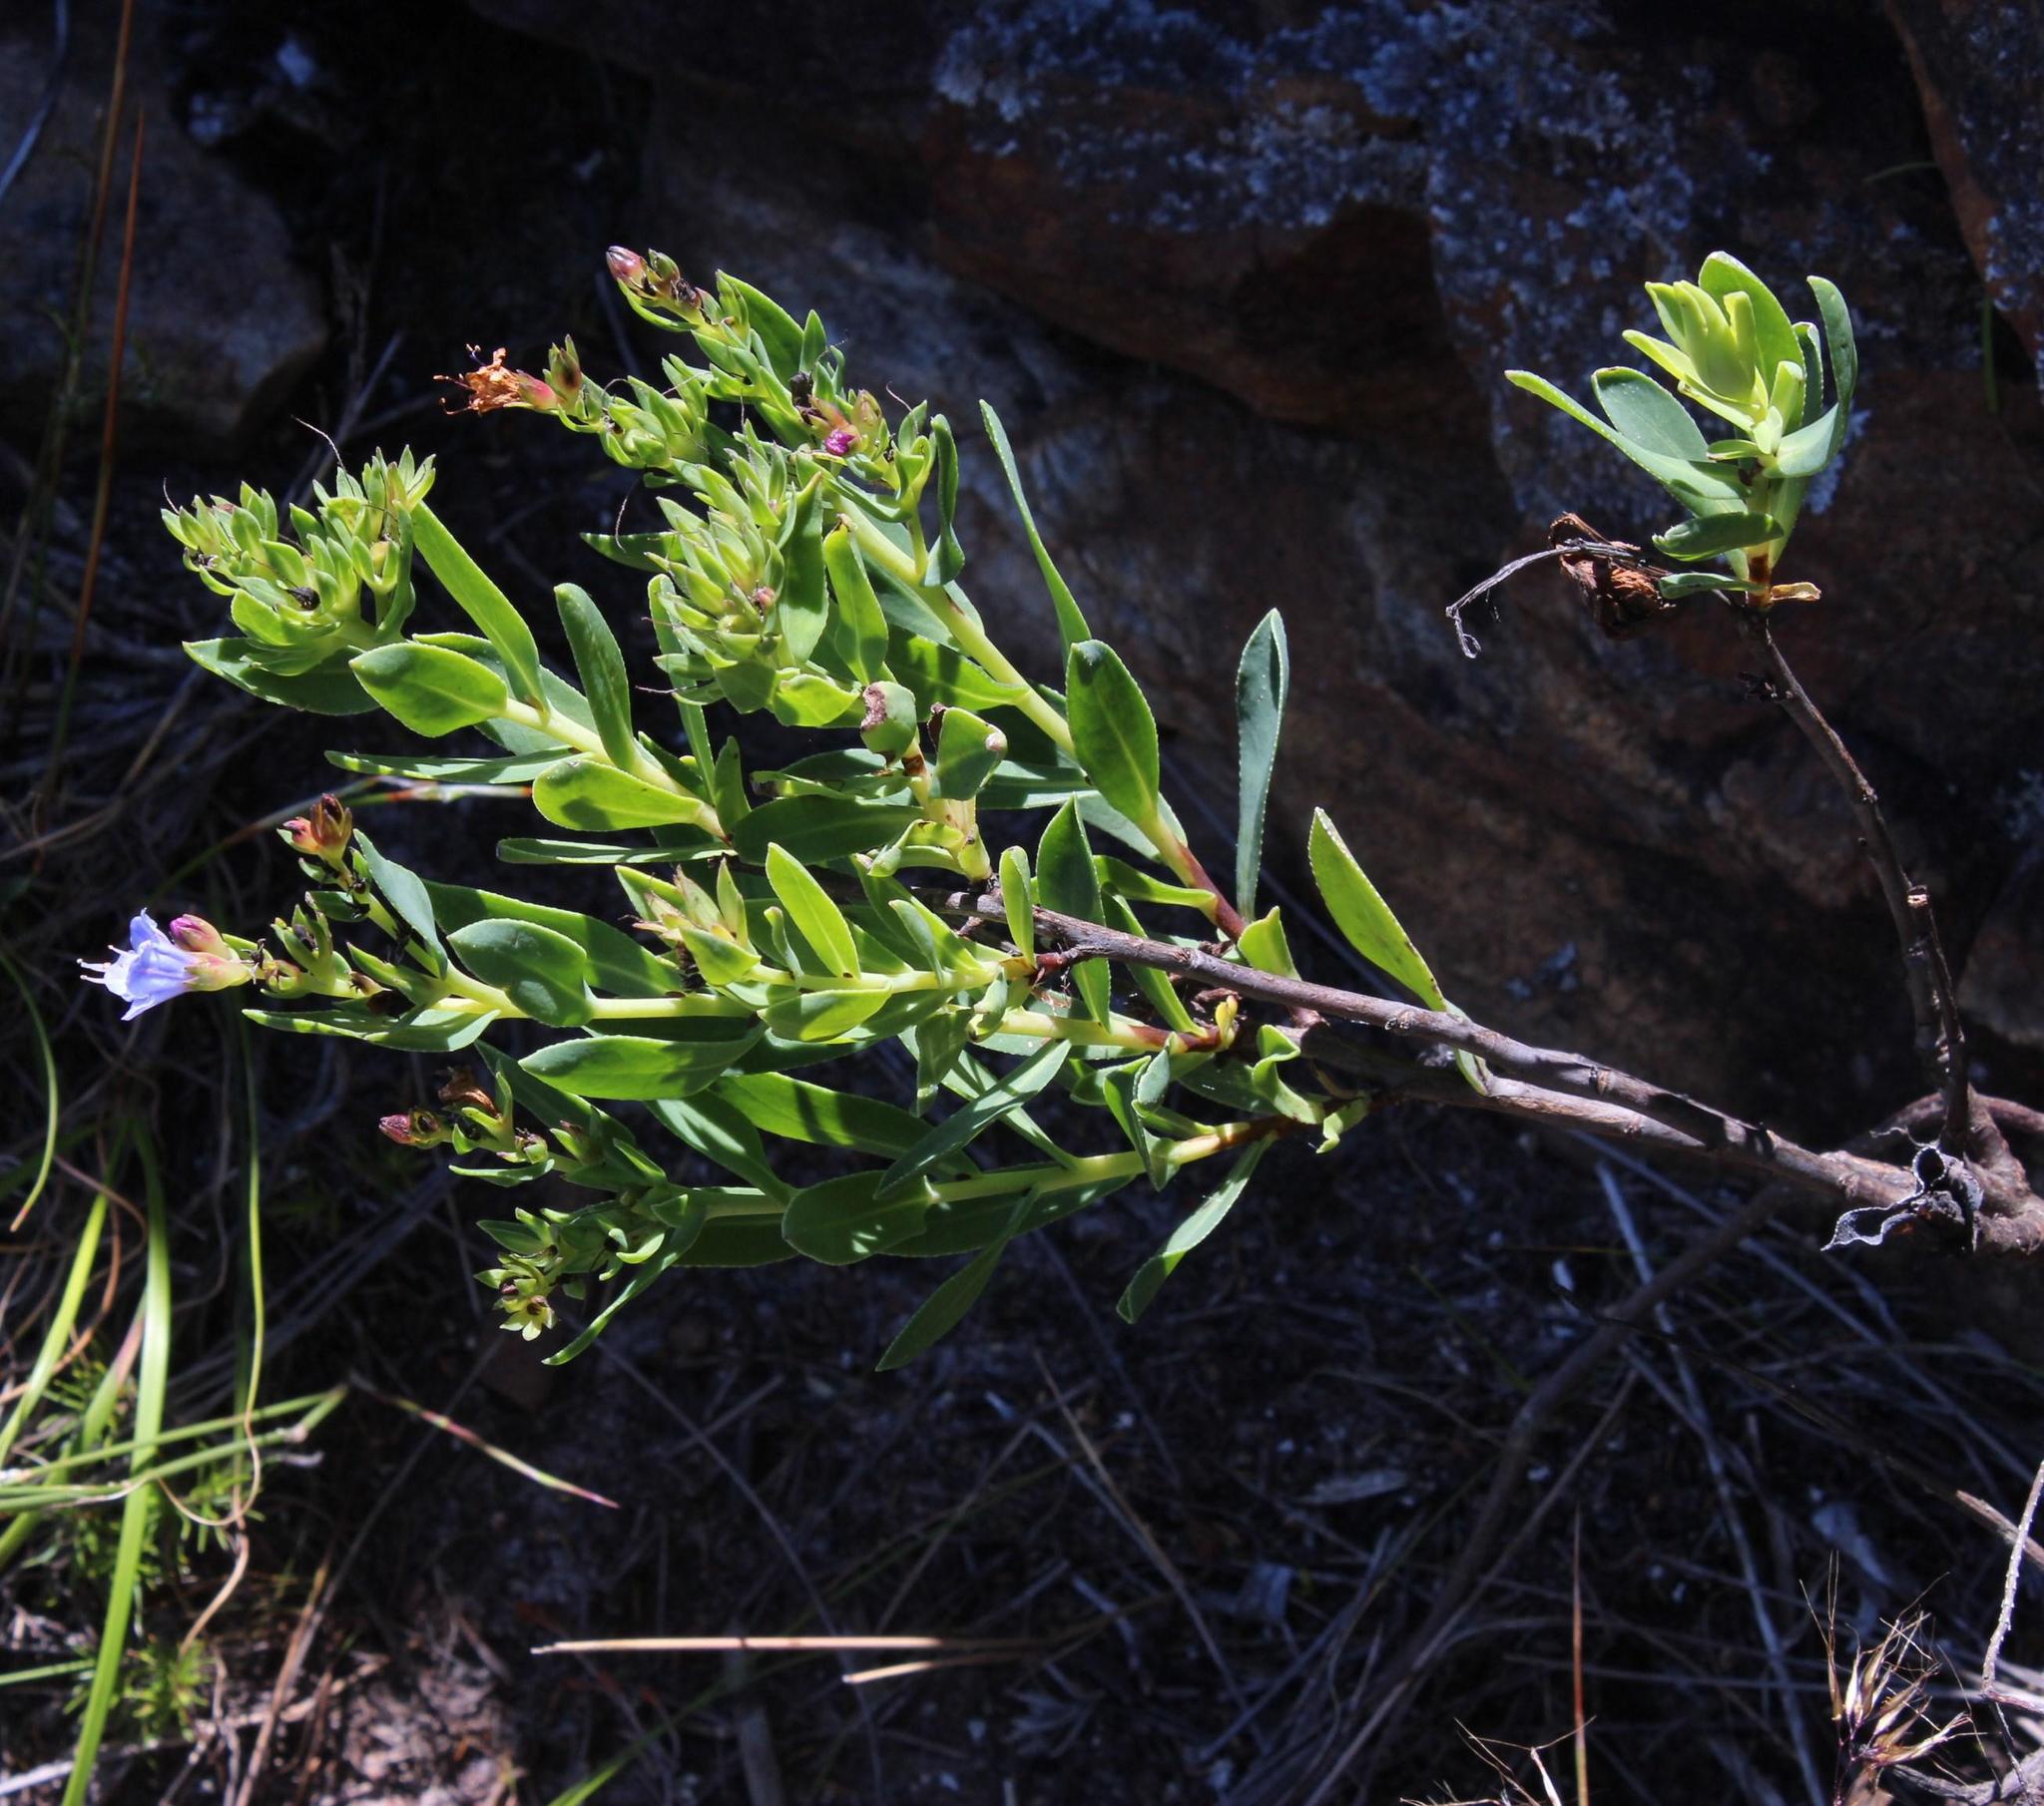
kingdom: Plantae
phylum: Tracheophyta
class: Magnoliopsida
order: Boraginales
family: Boraginaceae
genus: Lobostemon
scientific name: Lobostemon glaucophyllus
